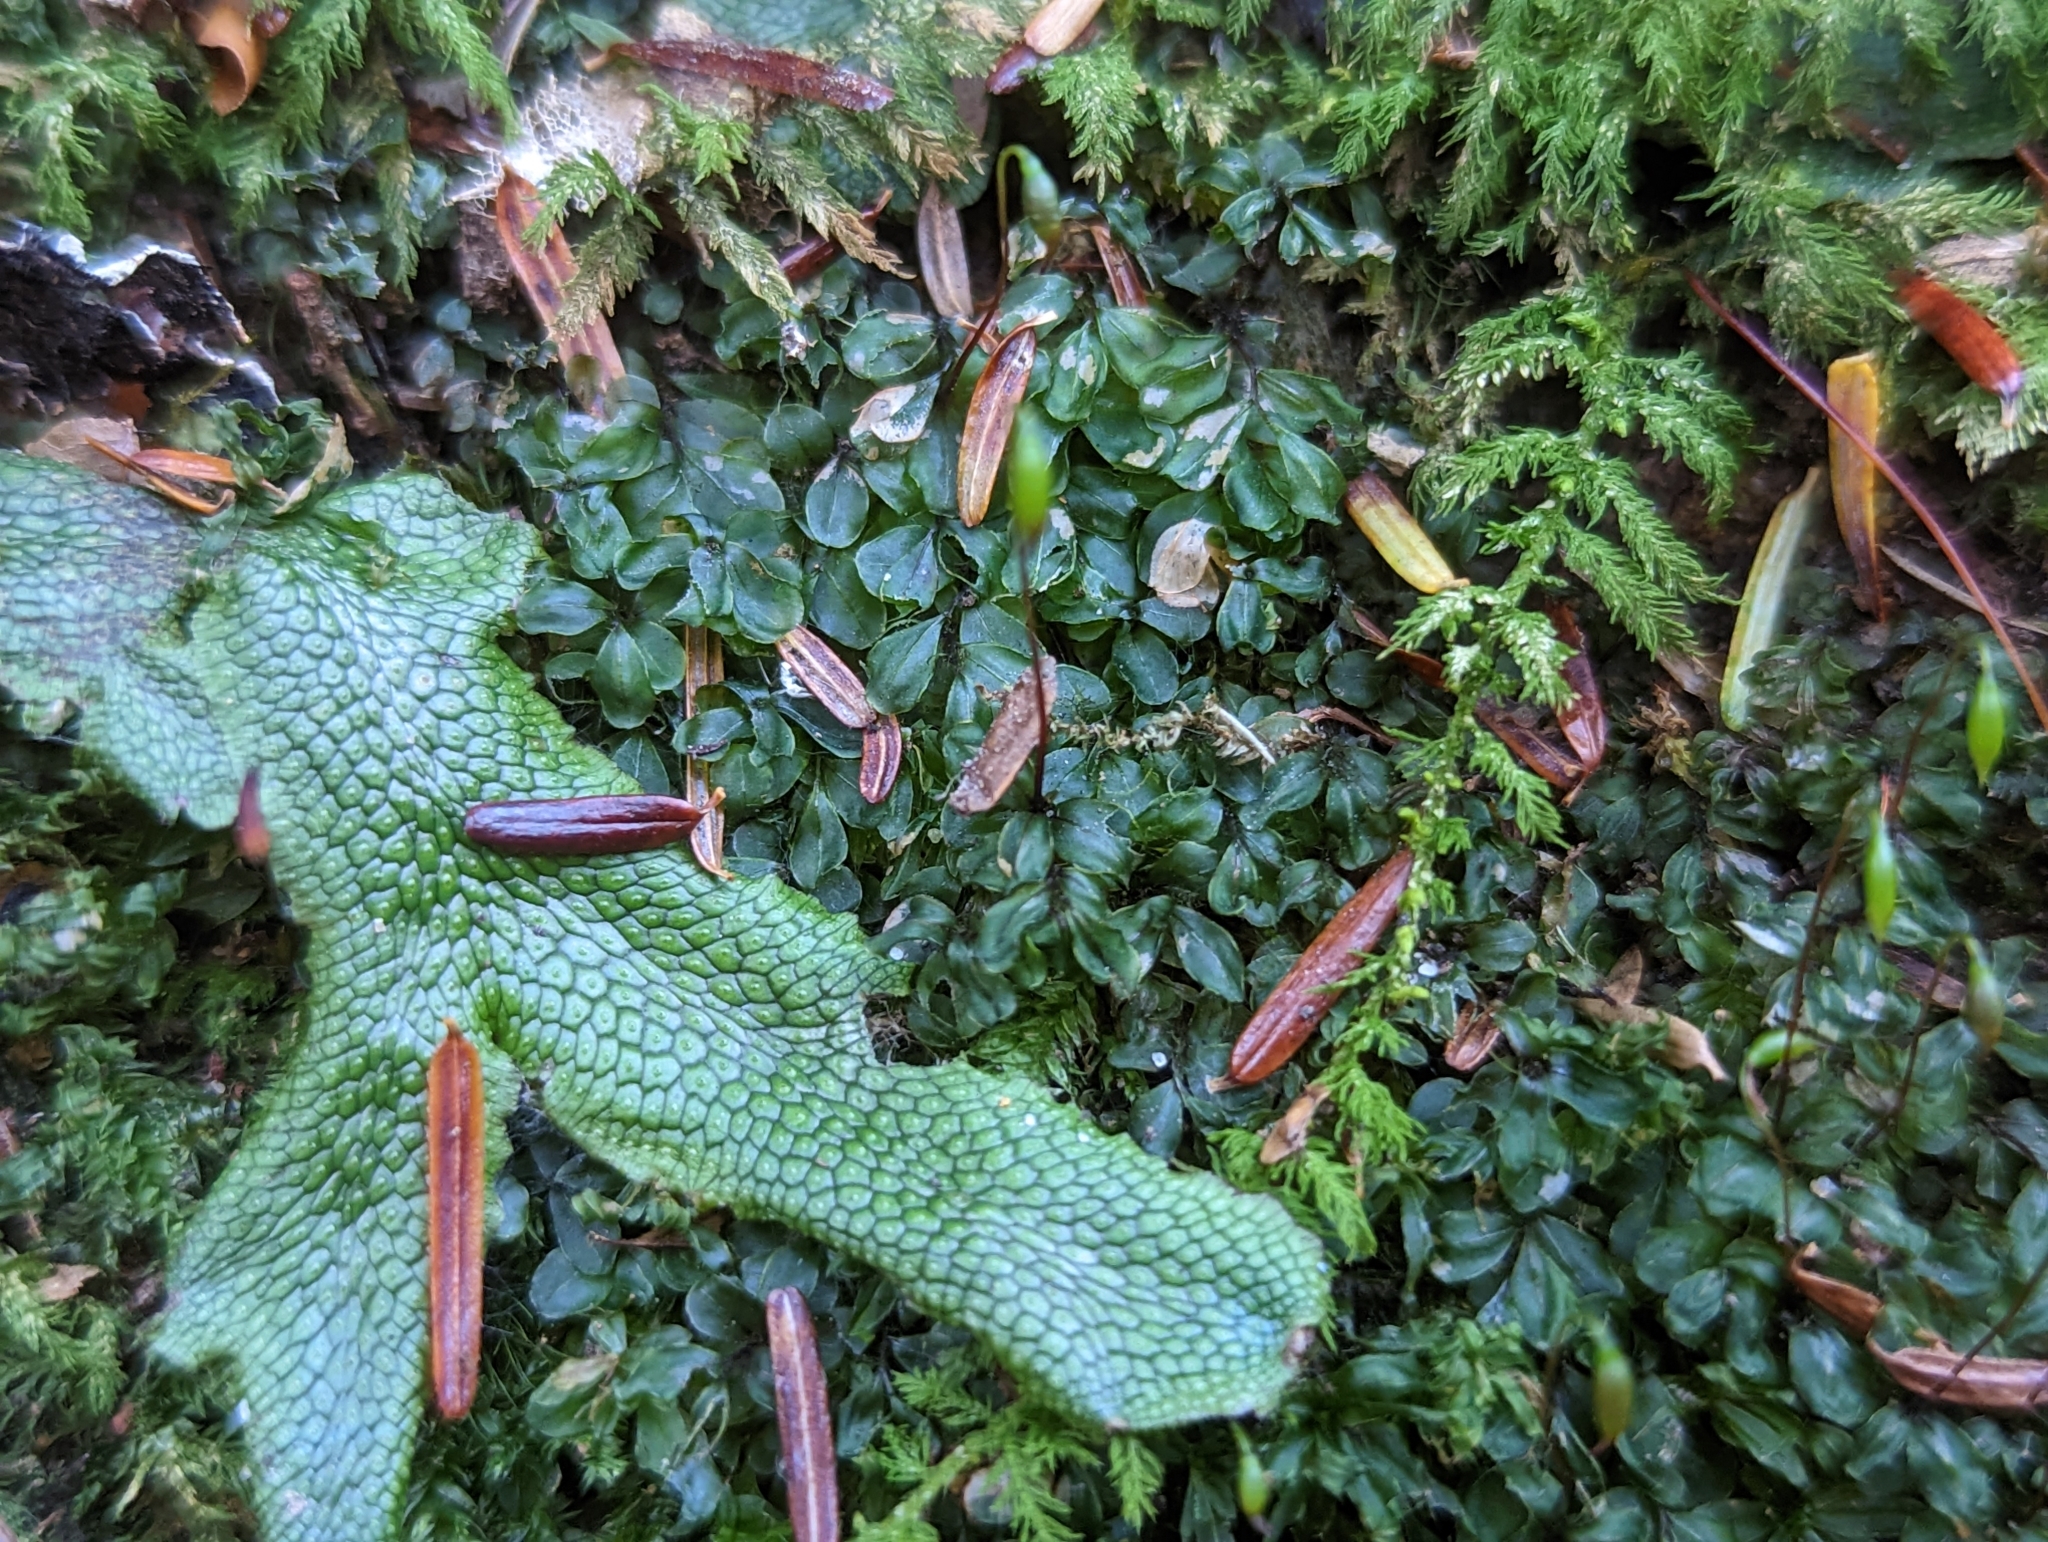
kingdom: Plantae
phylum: Marchantiophyta
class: Marchantiopsida
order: Marchantiales
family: Conocephalaceae
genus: Conocephalum
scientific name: Conocephalum salebrosum
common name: Cat-tongue liverwort
